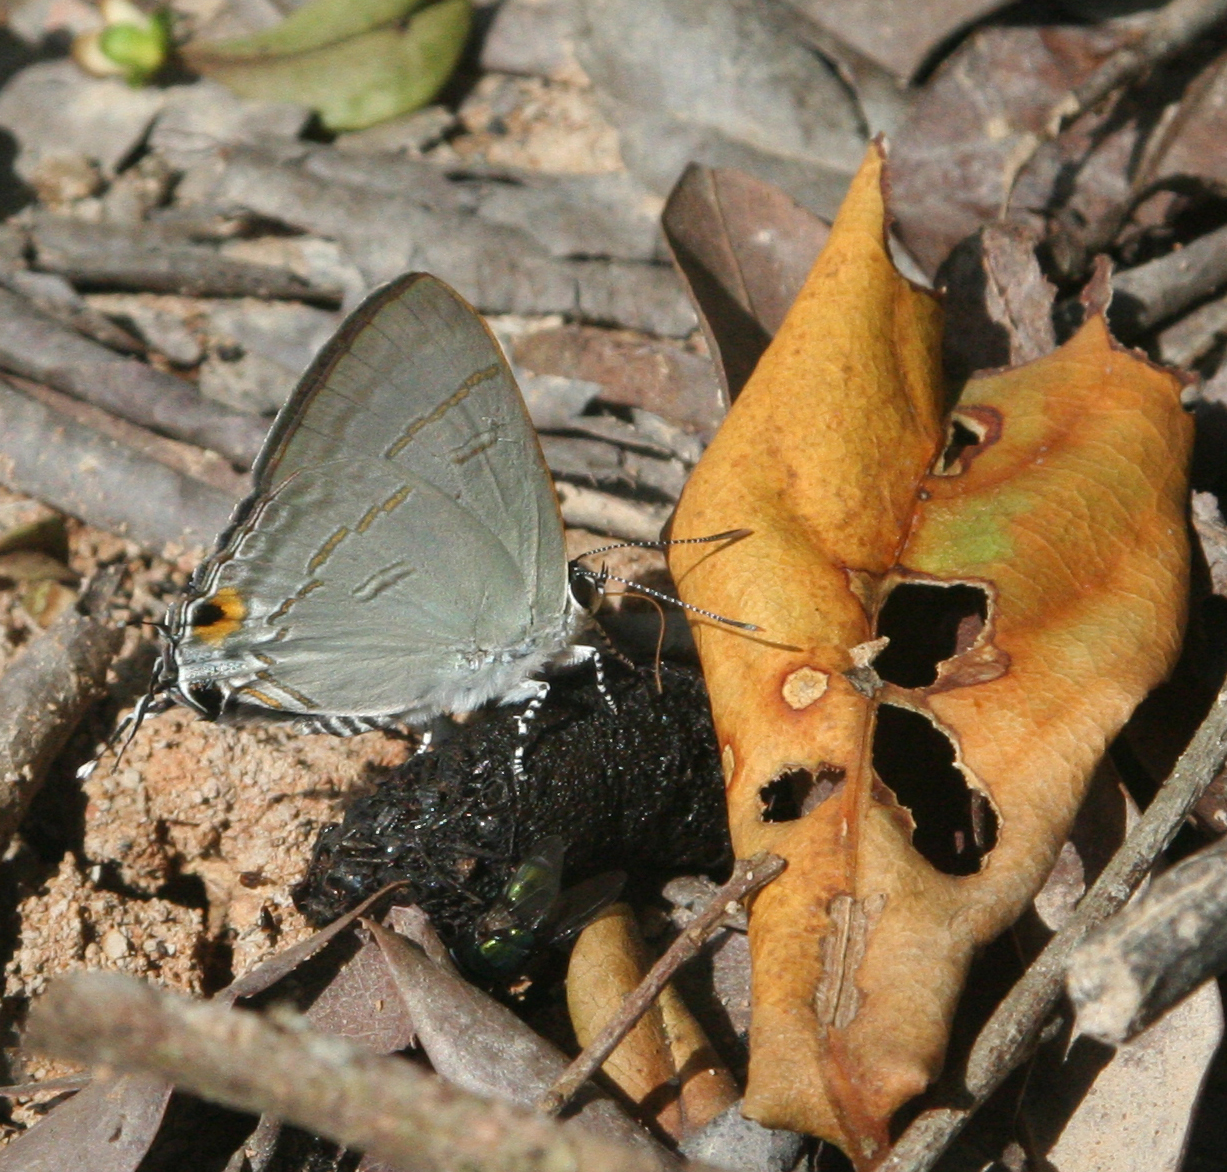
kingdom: Animalia
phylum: Arthropoda
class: Insecta
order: Lepidoptera
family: Lycaenidae
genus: Hypolycaena
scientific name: Hypolycaena erylus
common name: Common tit
